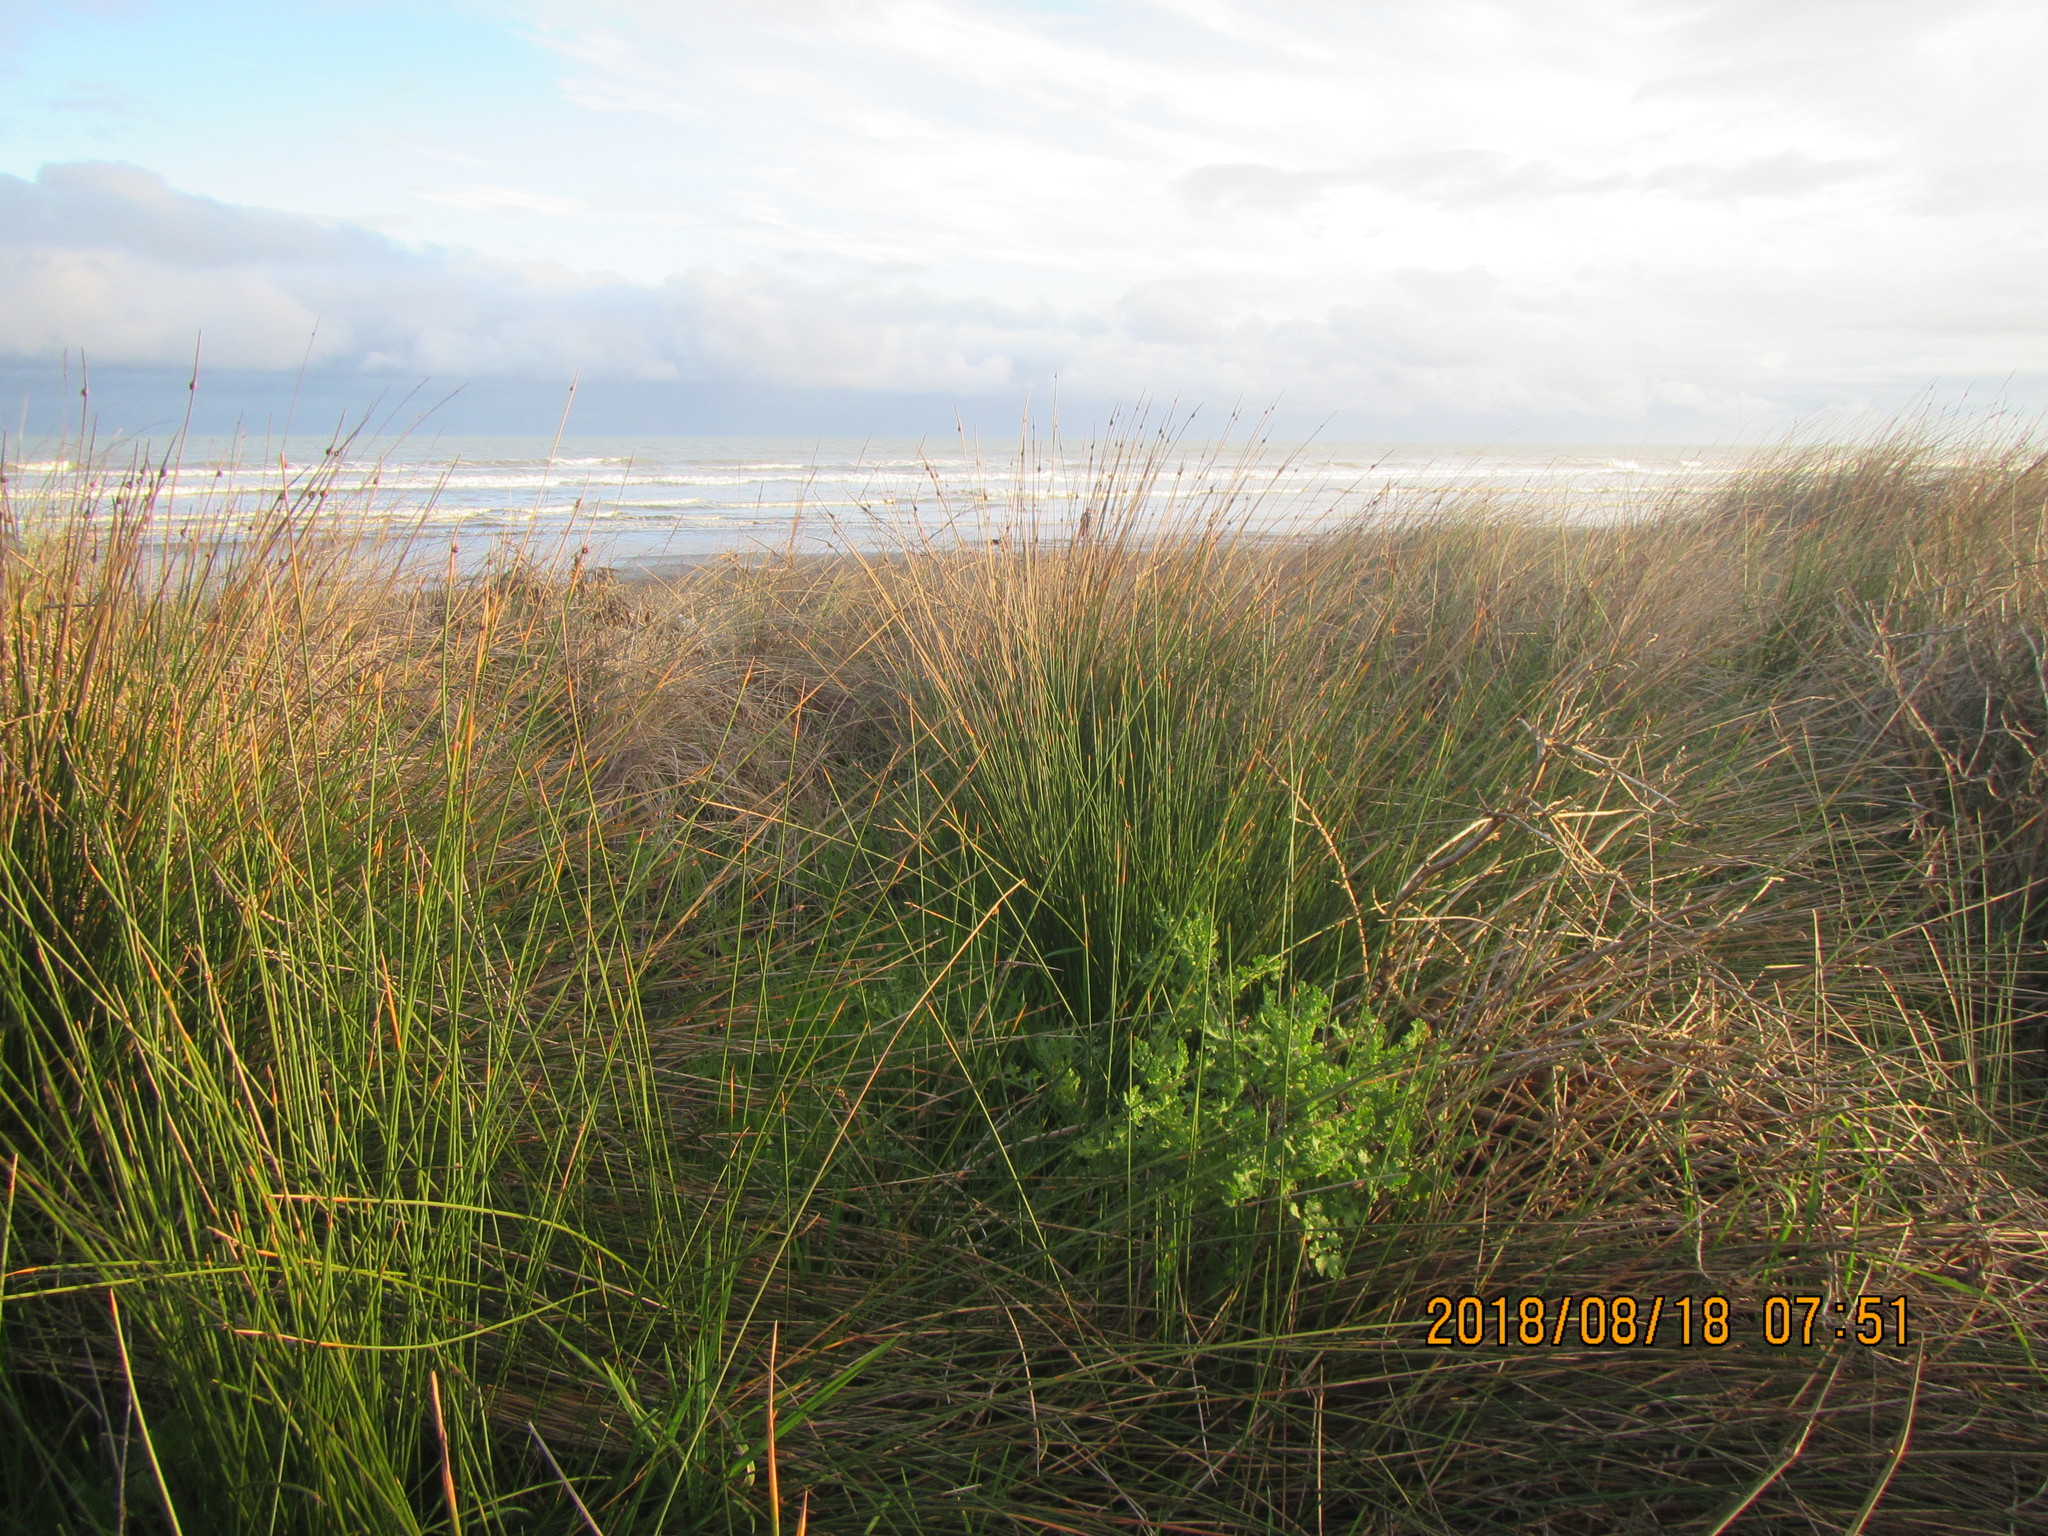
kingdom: Plantae
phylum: Tracheophyta
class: Magnoliopsida
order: Asterales
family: Asteraceae
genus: Senecio
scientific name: Senecio elegans
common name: Purple groundsel
